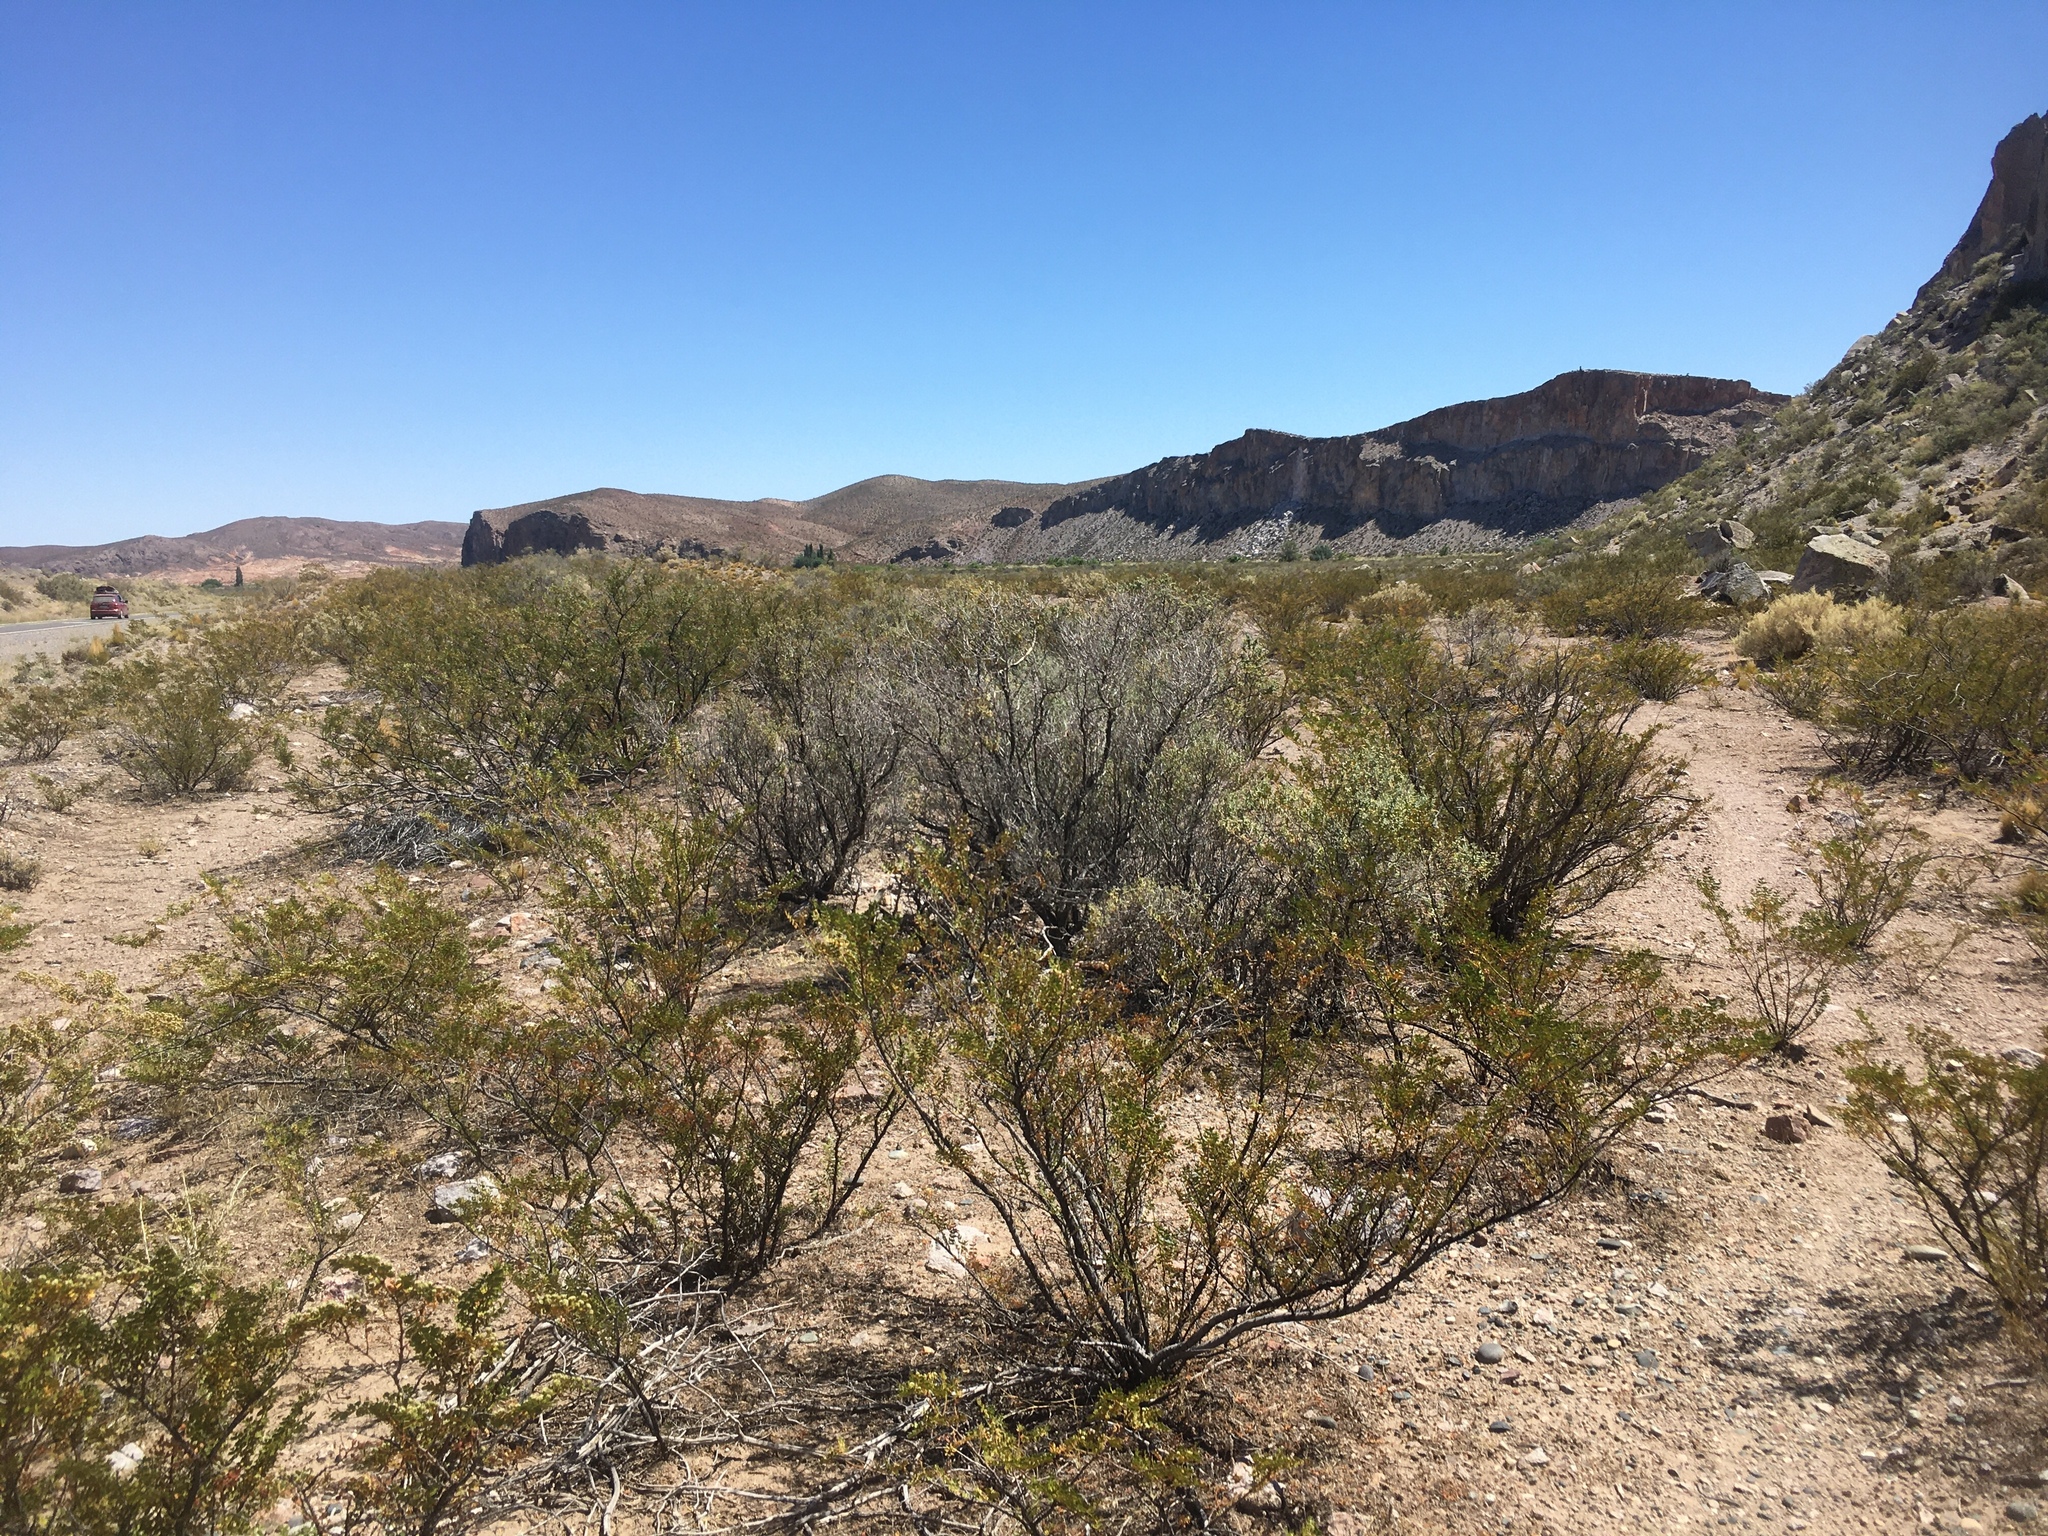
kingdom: Plantae
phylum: Tracheophyta
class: Magnoliopsida
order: Zygophyllales
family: Zygophyllaceae
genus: Larrea
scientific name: Larrea nitida
